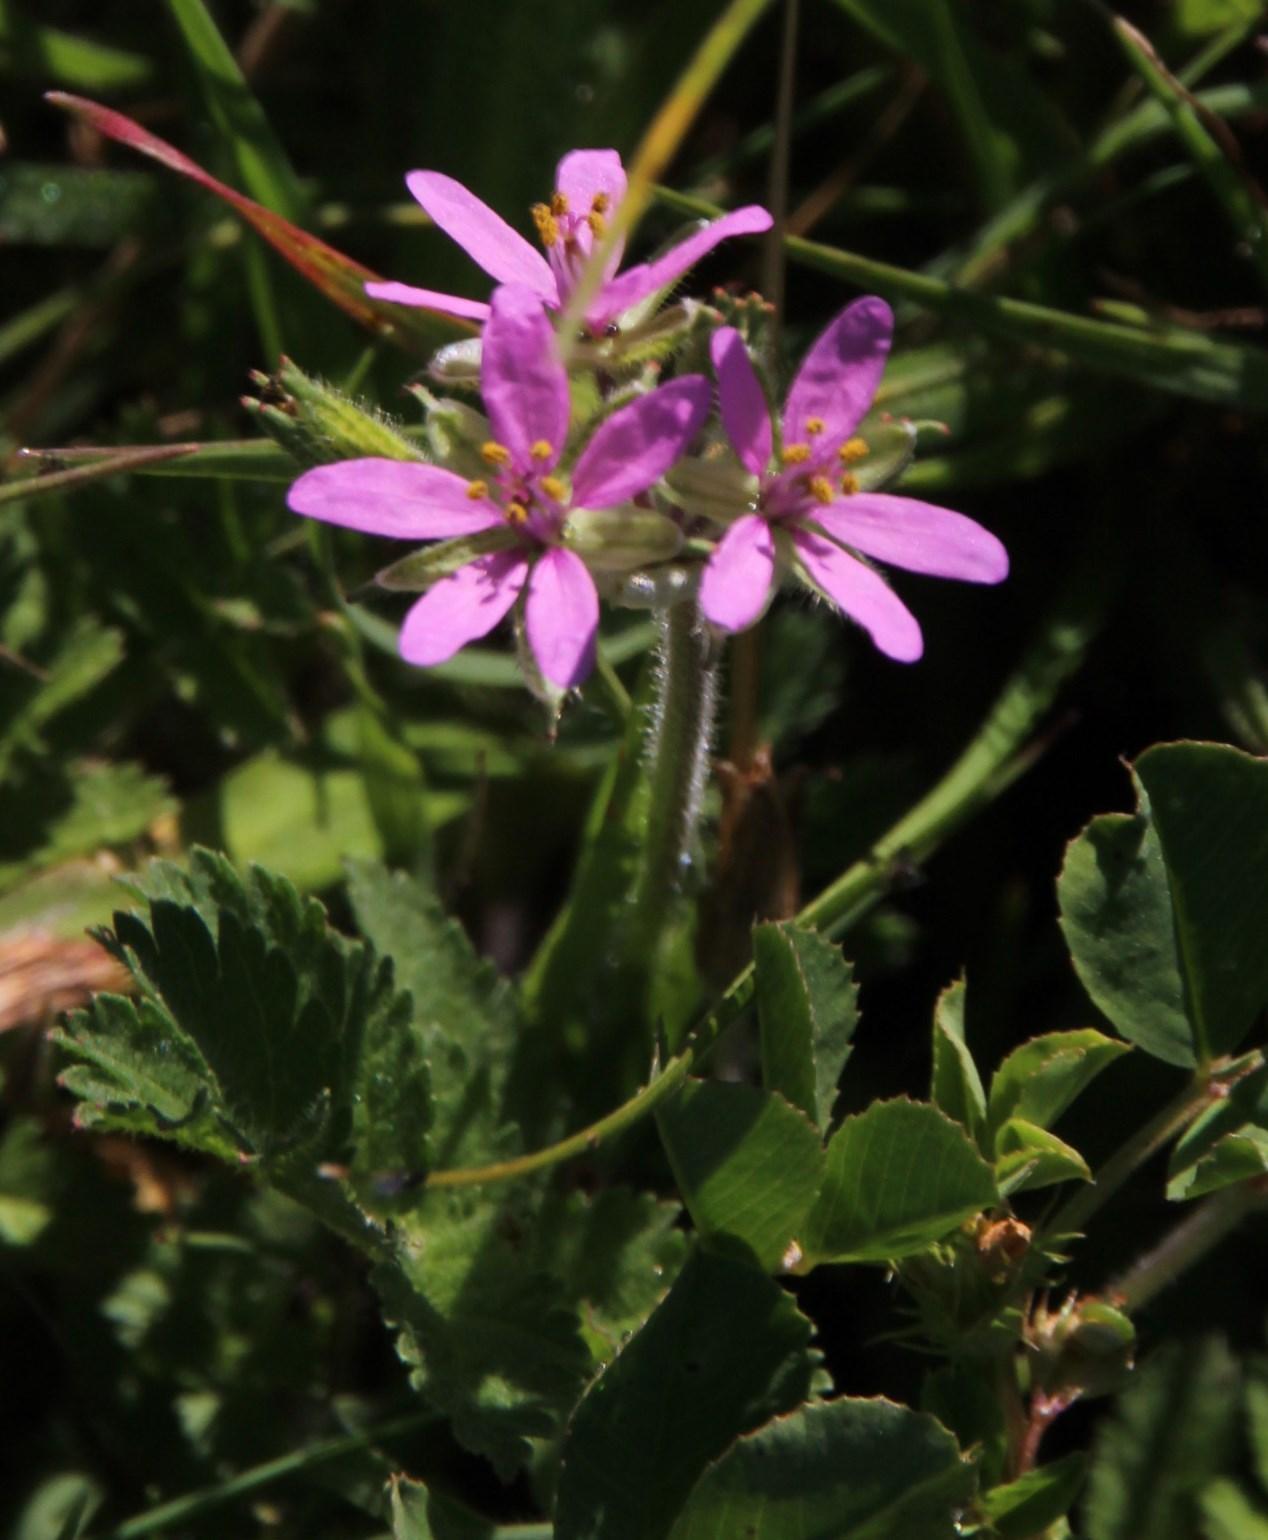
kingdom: Plantae
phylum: Tracheophyta
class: Magnoliopsida
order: Geraniales
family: Geraniaceae
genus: Erodium
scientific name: Erodium moschatum
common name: Musk stork's-bill
